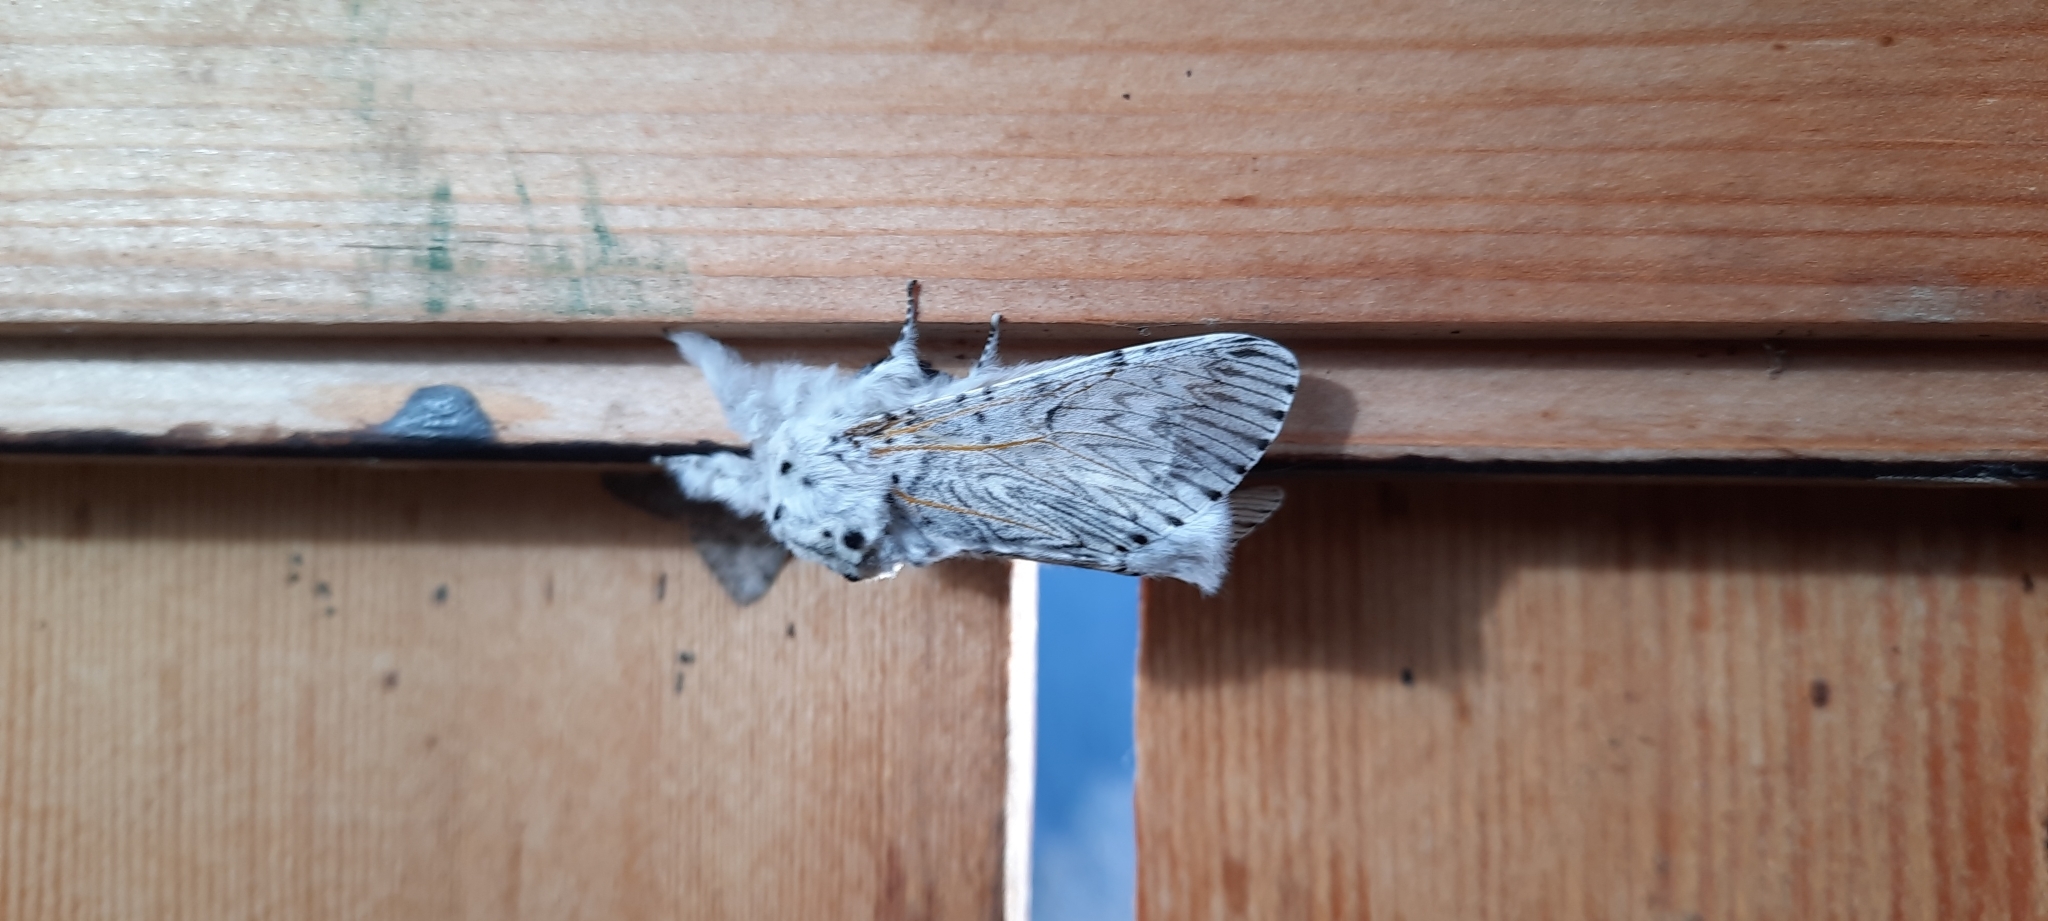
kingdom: Animalia
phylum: Arthropoda
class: Insecta
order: Lepidoptera
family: Notodontidae
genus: Cerura
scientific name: Cerura vinula
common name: Puss moth
